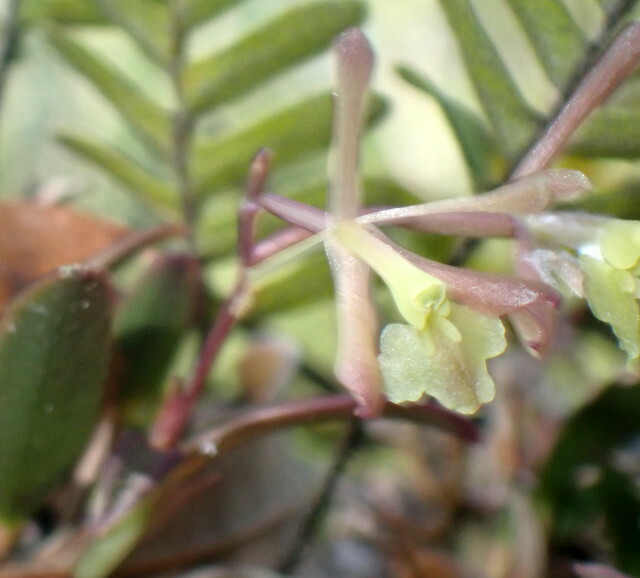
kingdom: Plantae
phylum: Tracheophyta
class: Liliopsida
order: Asparagales
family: Orchidaceae
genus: Epidendrum
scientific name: Epidendrum conopseum
